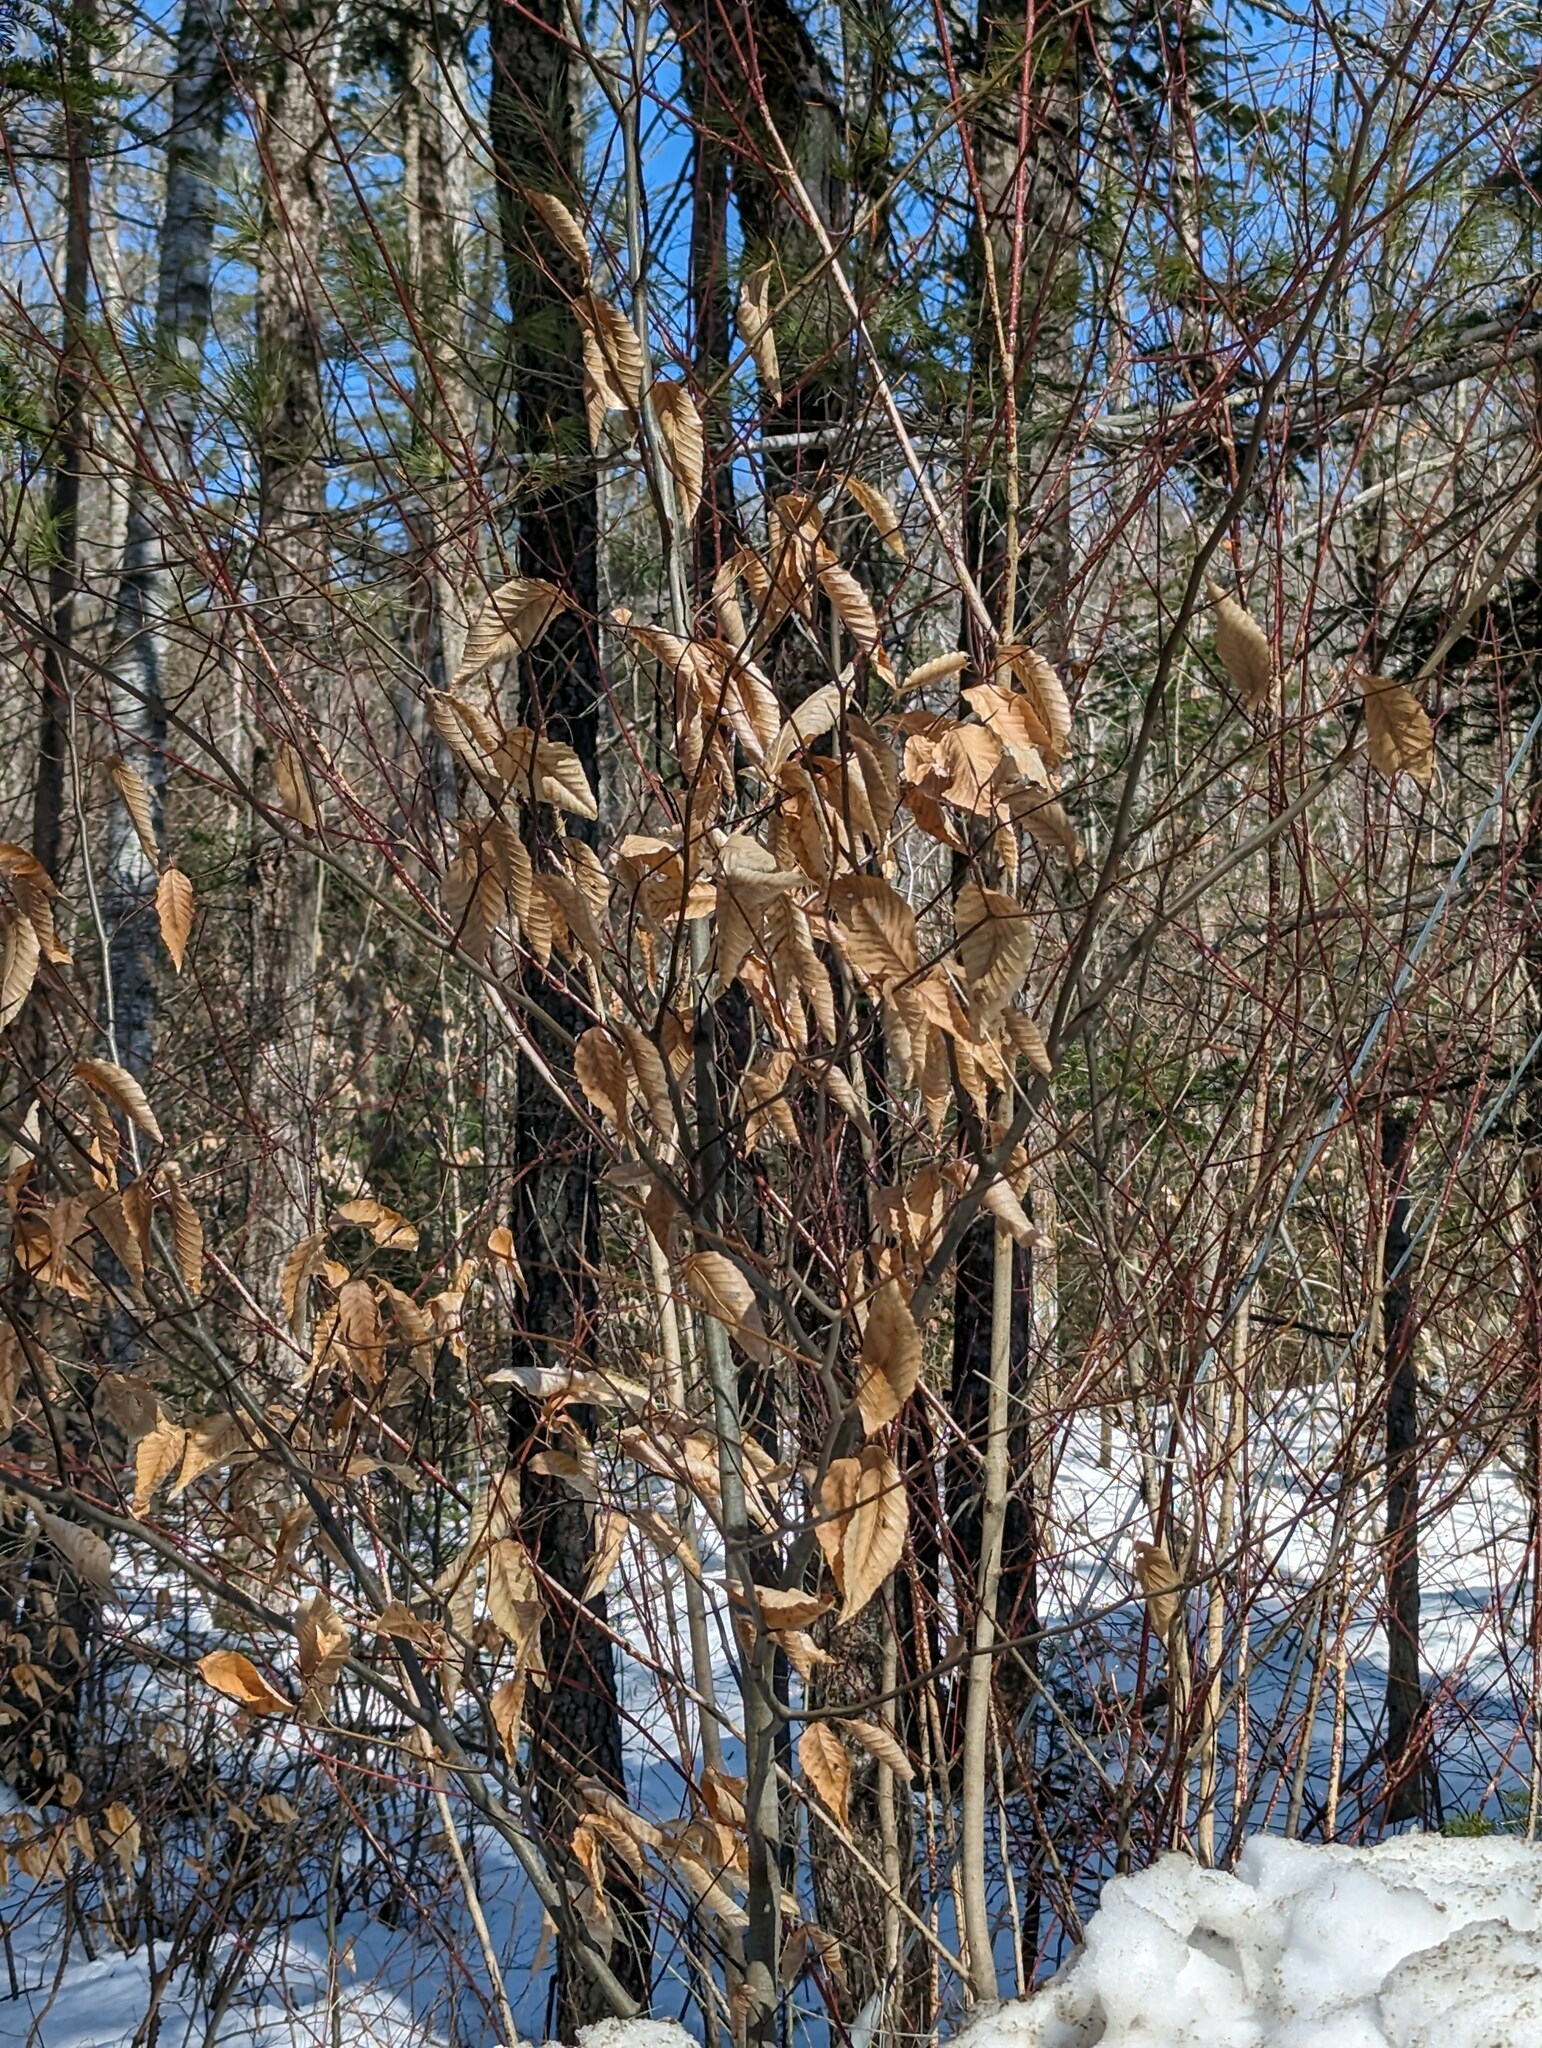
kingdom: Plantae
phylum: Tracheophyta
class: Magnoliopsida
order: Fagales
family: Fagaceae
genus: Fagus
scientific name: Fagus grandifolia
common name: American beech
